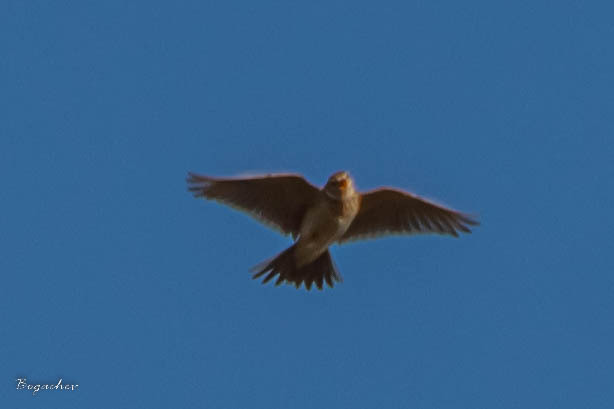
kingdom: Animalia
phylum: Chordata
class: Aves
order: Passeriformes
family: Alaudidae
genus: Alauda
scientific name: Alauda arvensis
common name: Eurasian skylark
